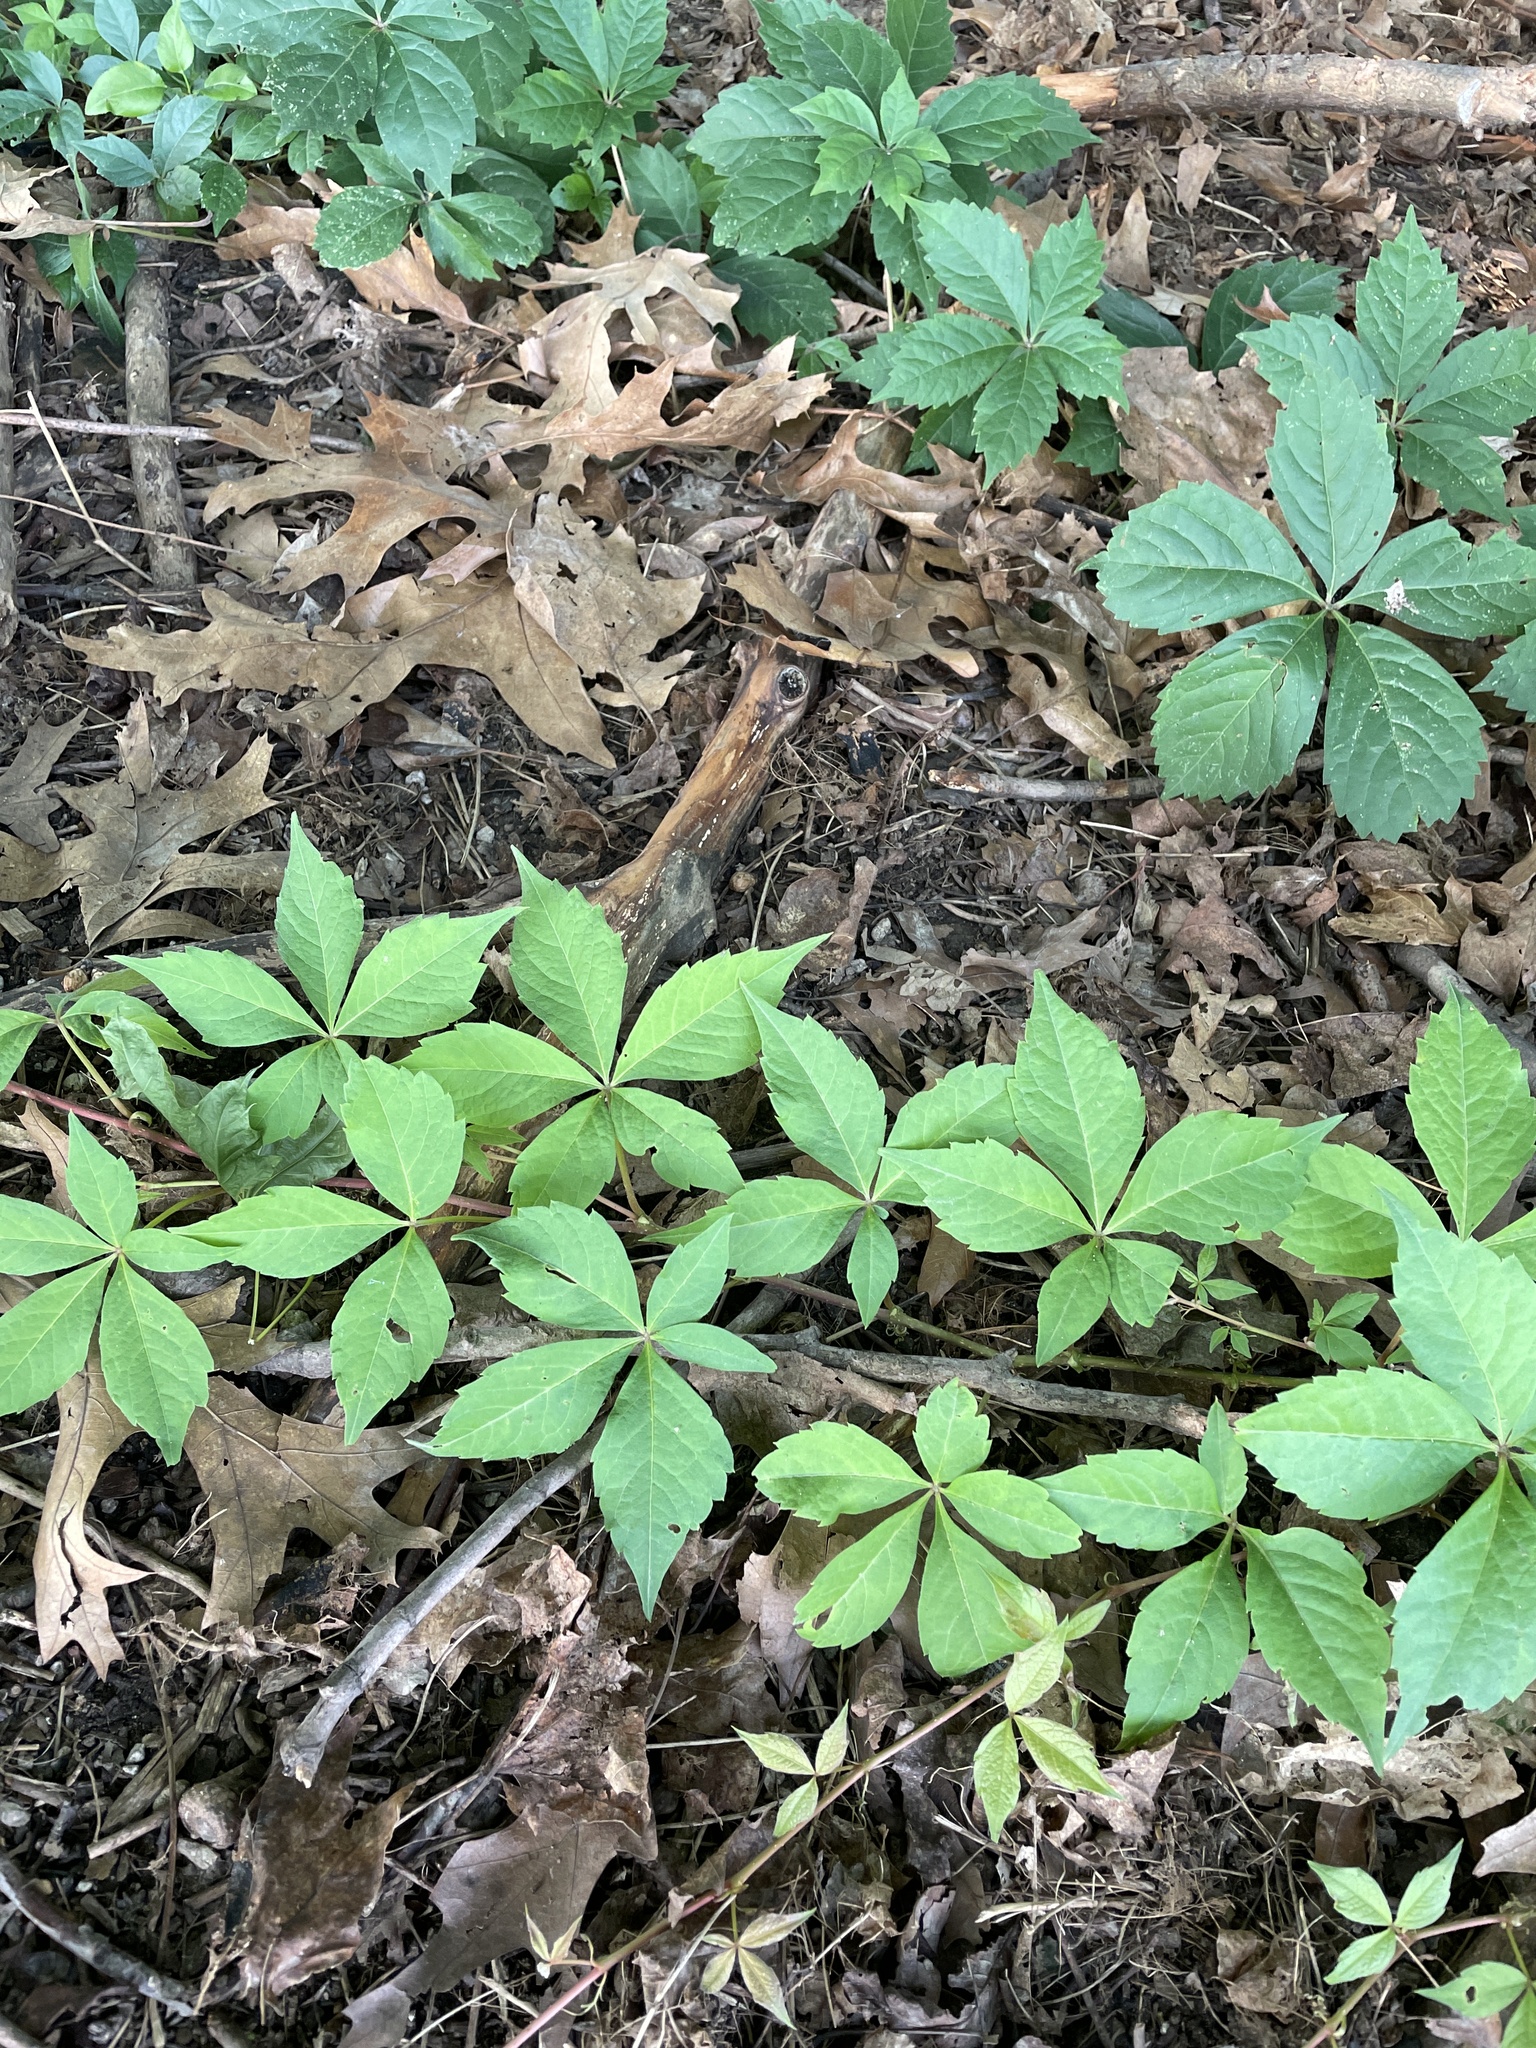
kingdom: Plantae
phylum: Tracheophyta
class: Magnoliopsida
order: Vitales
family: Vitaceae
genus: Parthenocissus
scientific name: Parthenocissus quinquefolia
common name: Virginia-creeper
